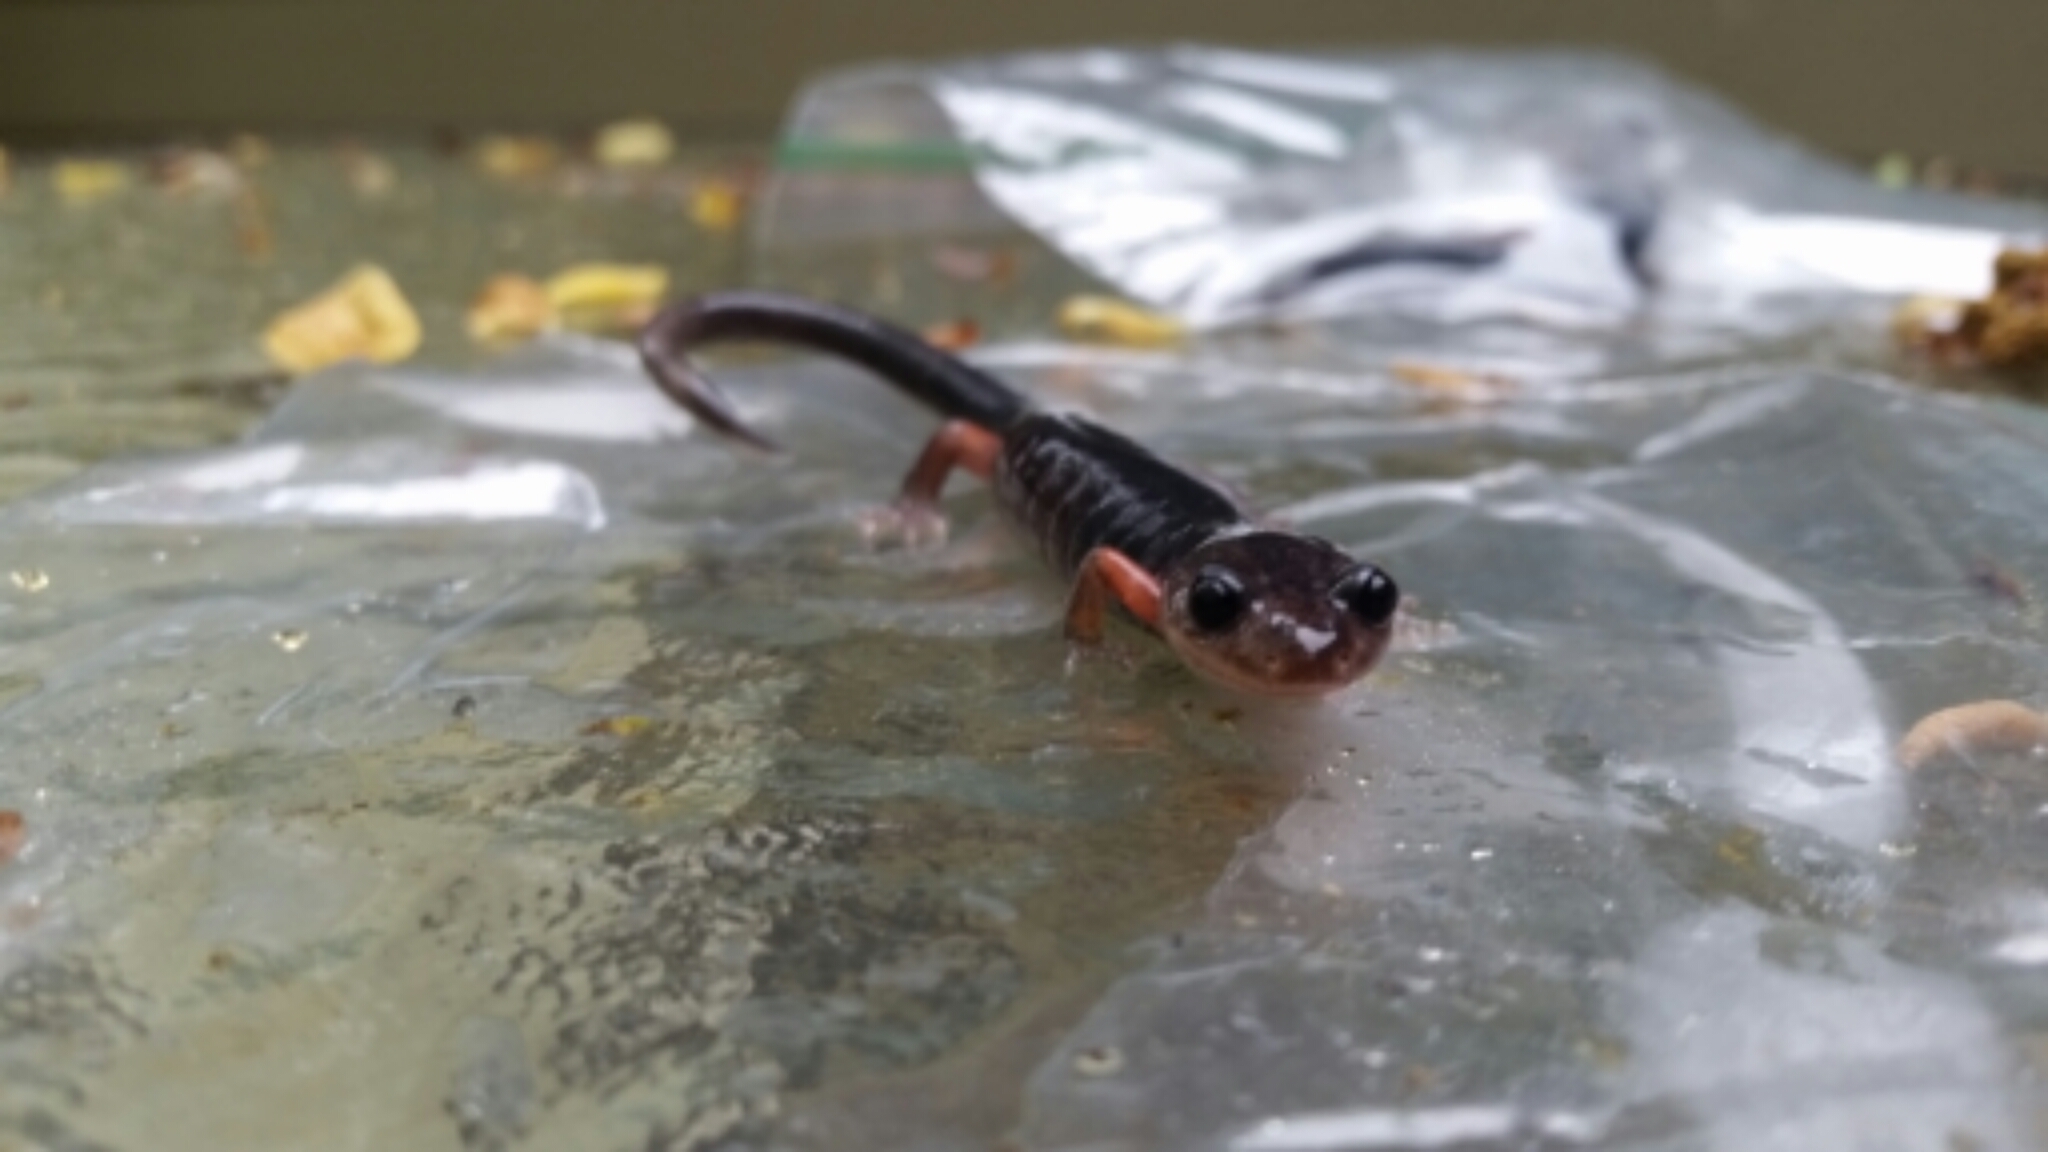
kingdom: Animalia
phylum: Chordata
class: Amphibia
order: Caudata
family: Plethodontidae
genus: Plethodon
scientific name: Plethodon shermani
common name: Red-legged salamander
